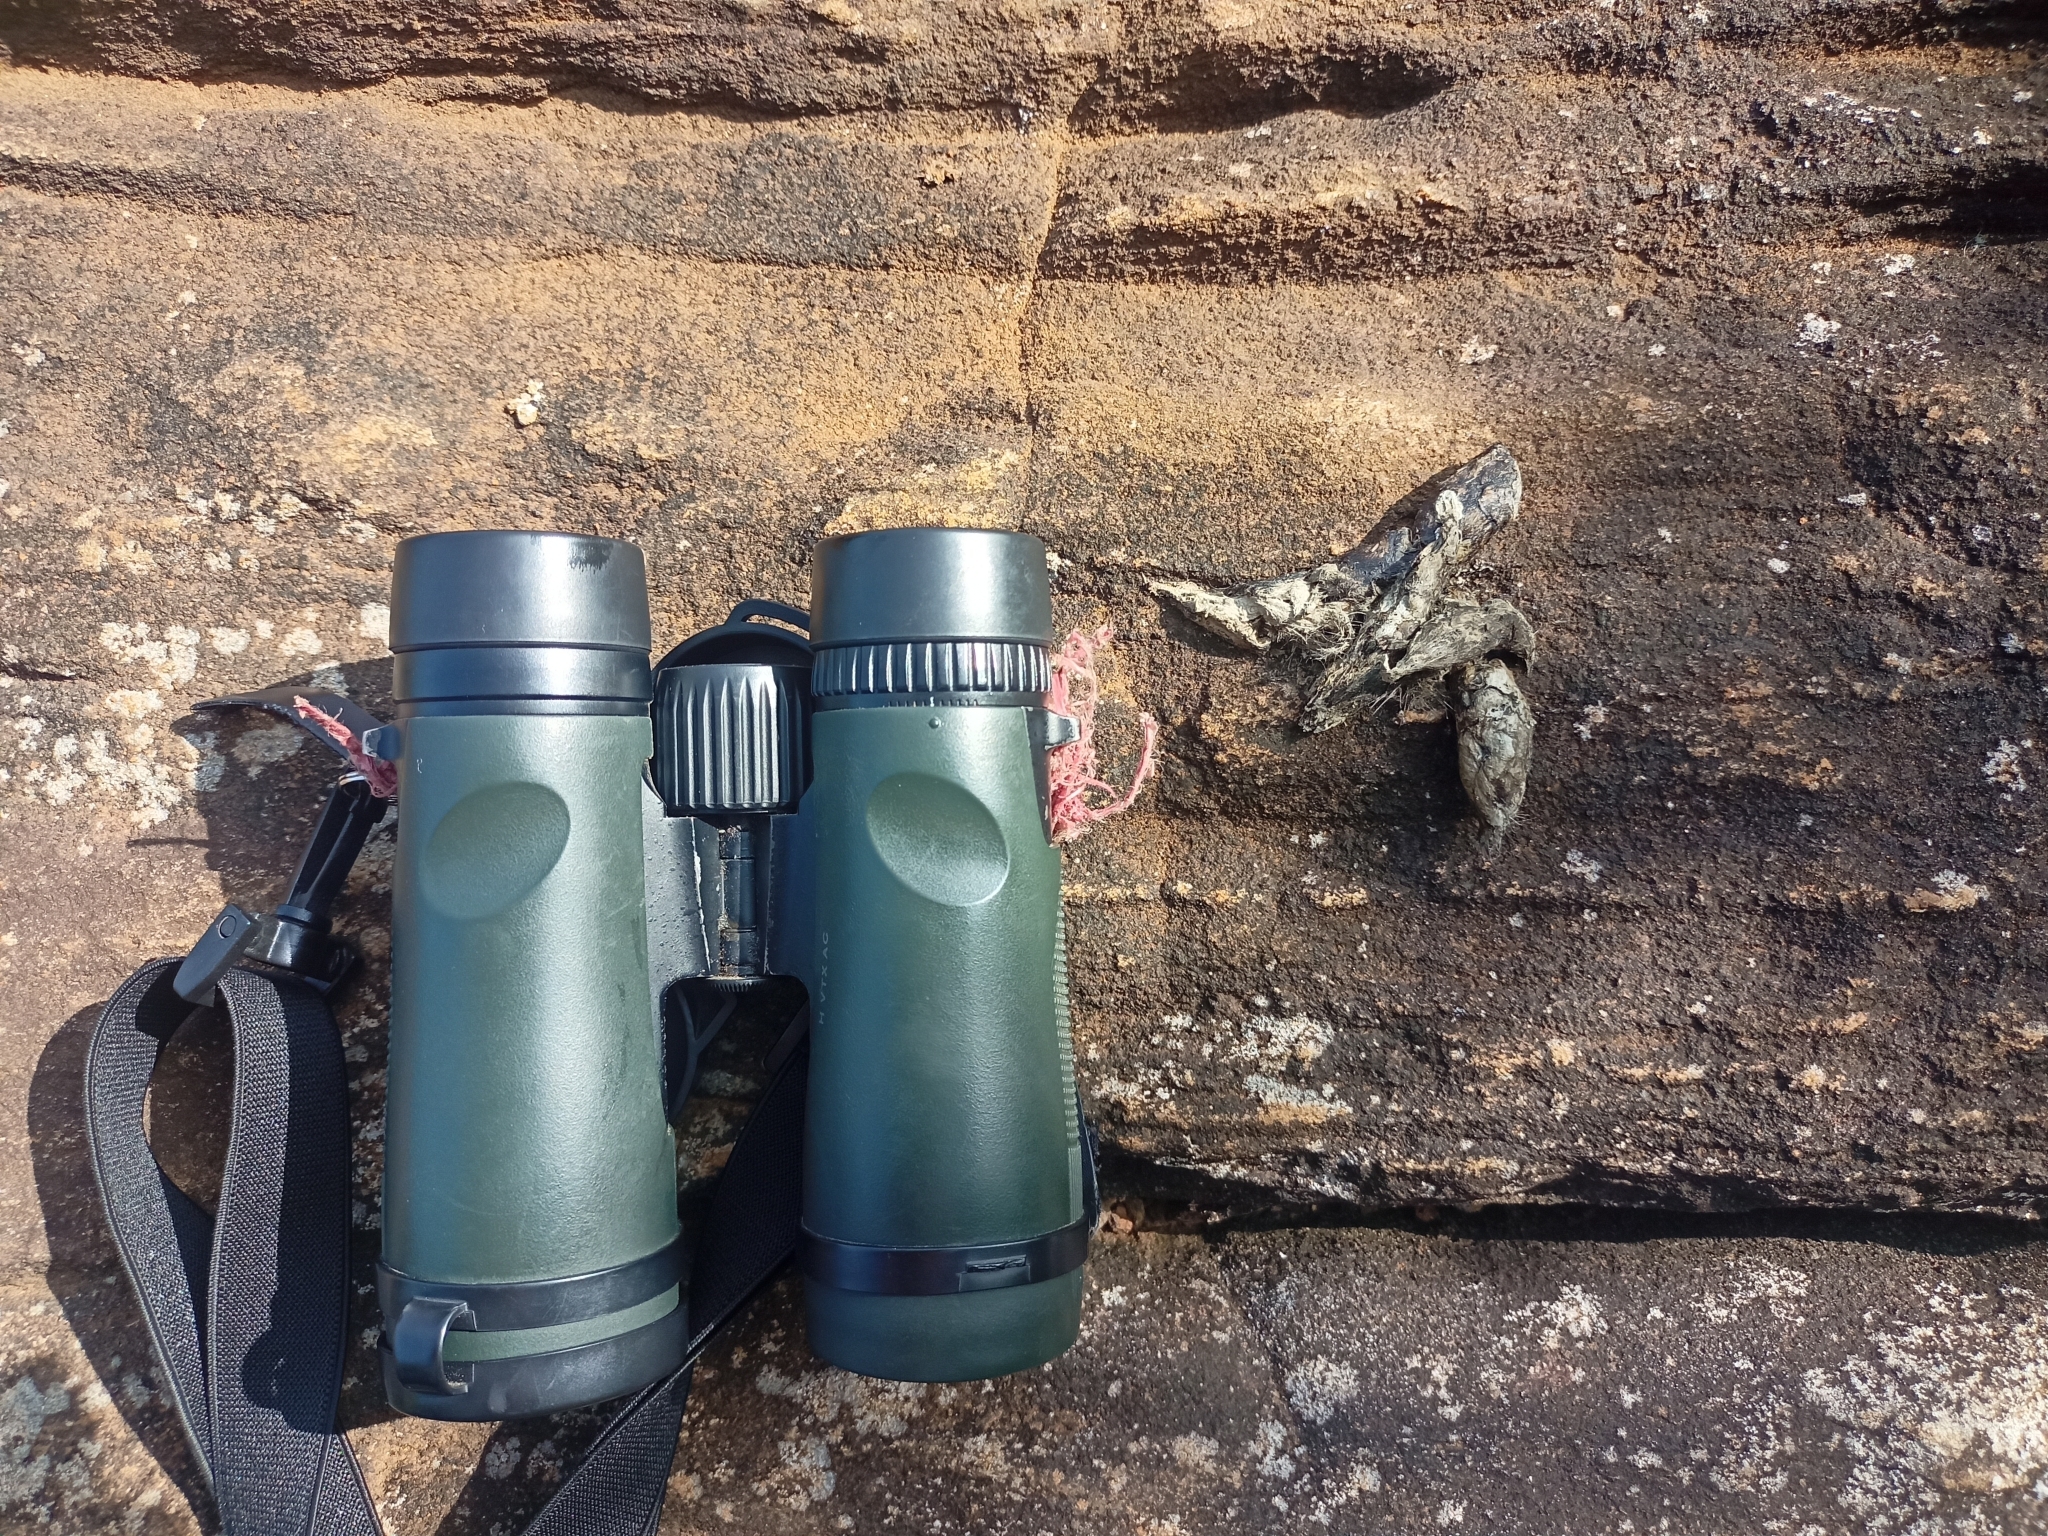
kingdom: Animalia
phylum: Chordata
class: Mammalia
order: Carnivora
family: Felidae
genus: Panthera
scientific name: Panthera pardus
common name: Leopard
